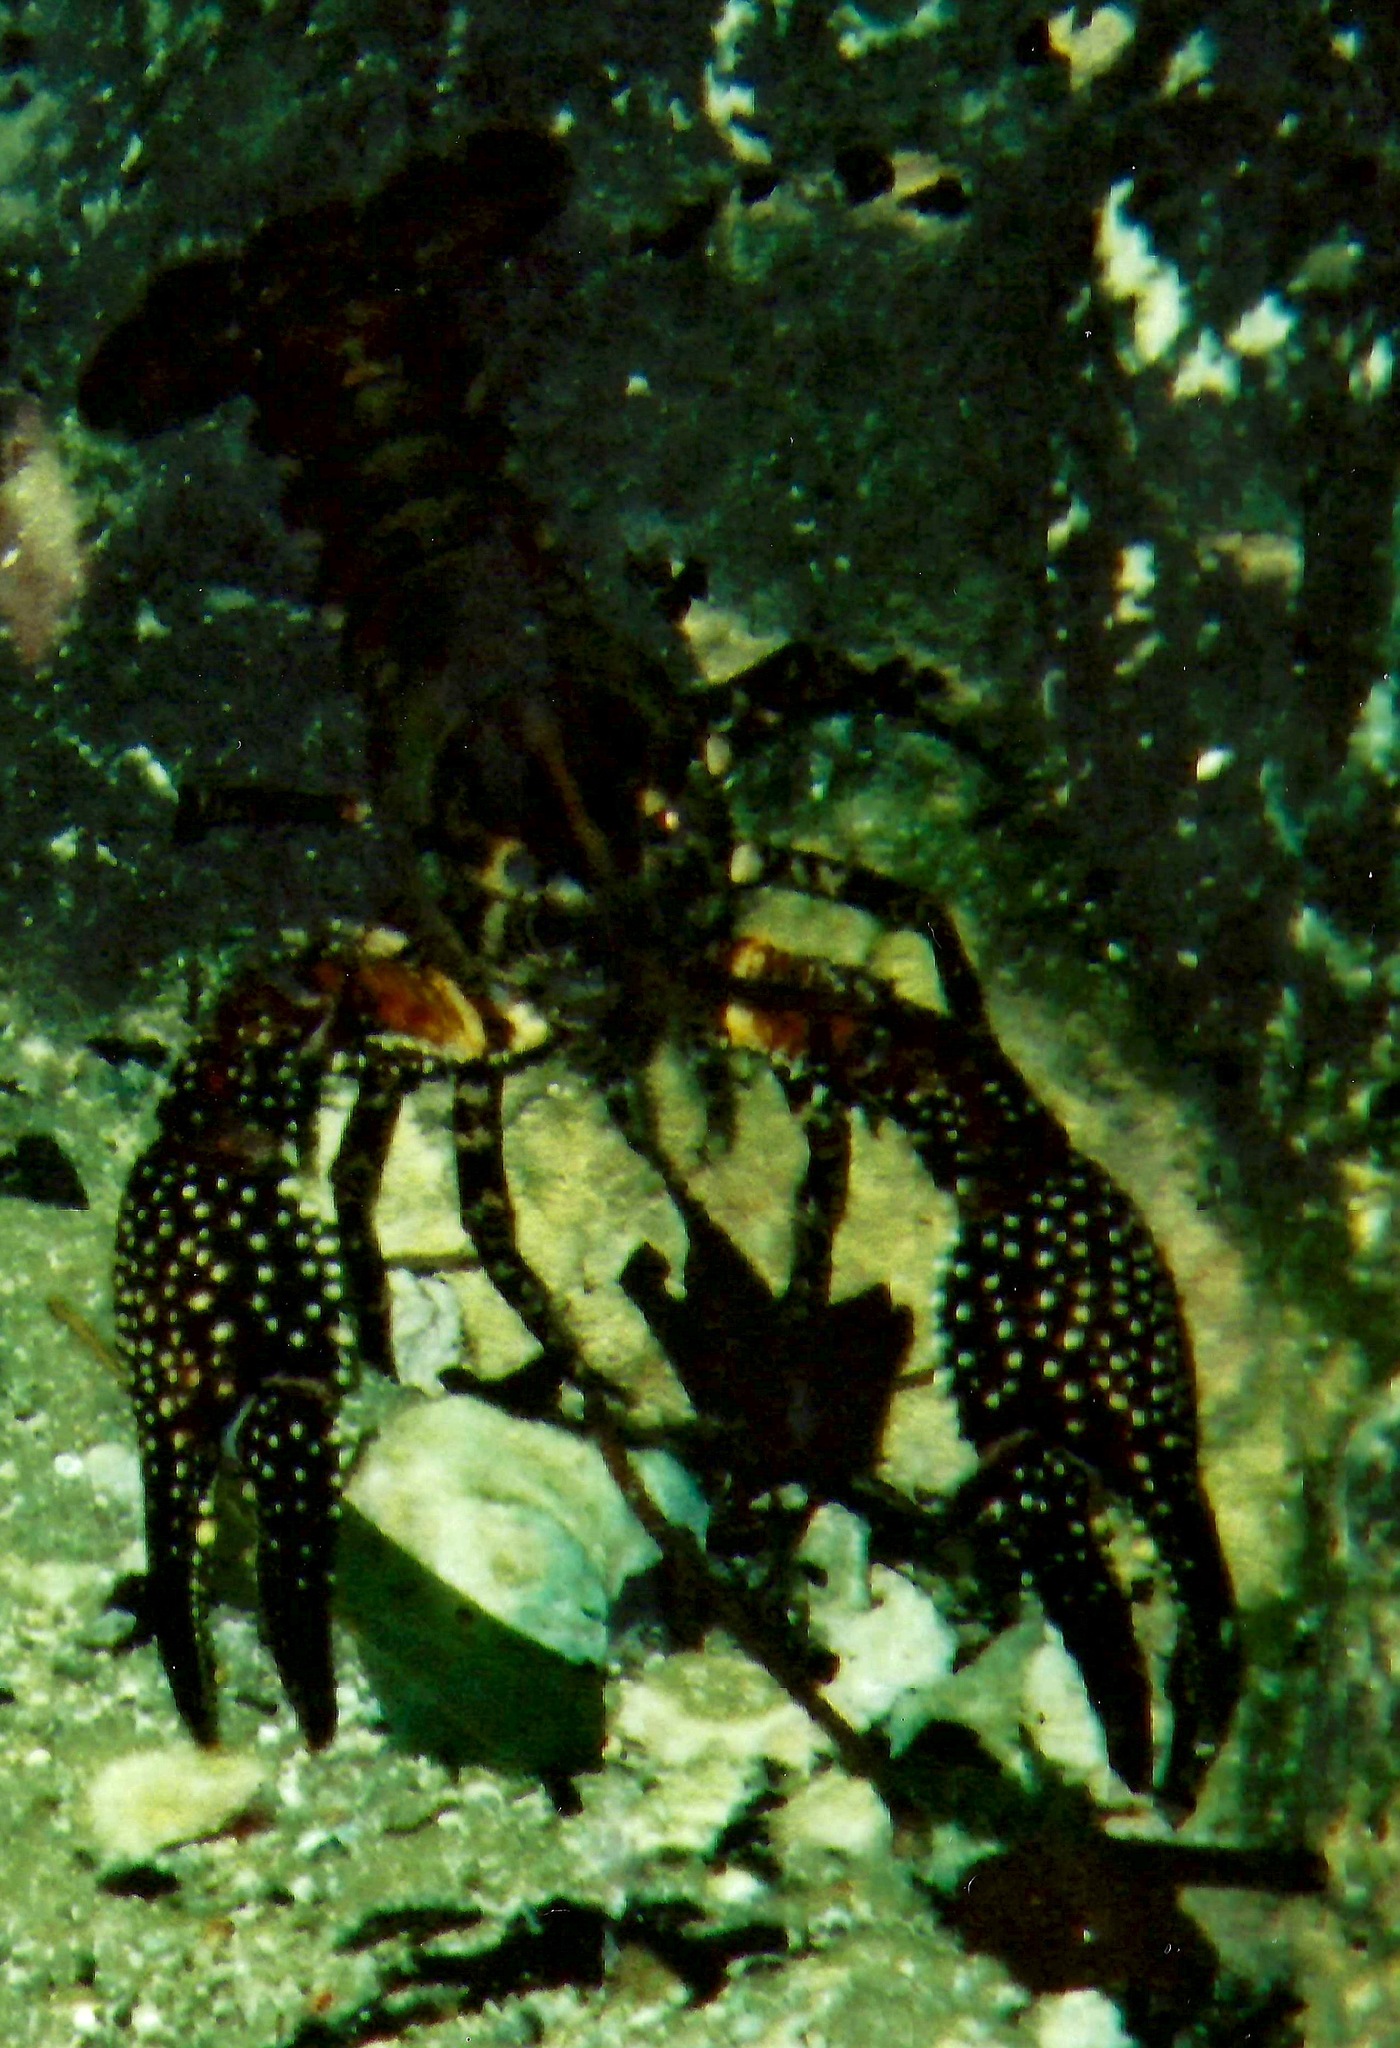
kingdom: Animalia
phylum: Arthropoda
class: Malacostraca
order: Decapoda
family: Cambaridae
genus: Procambarus
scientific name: Procambarus spiculifer
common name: White tubercled crayfish
